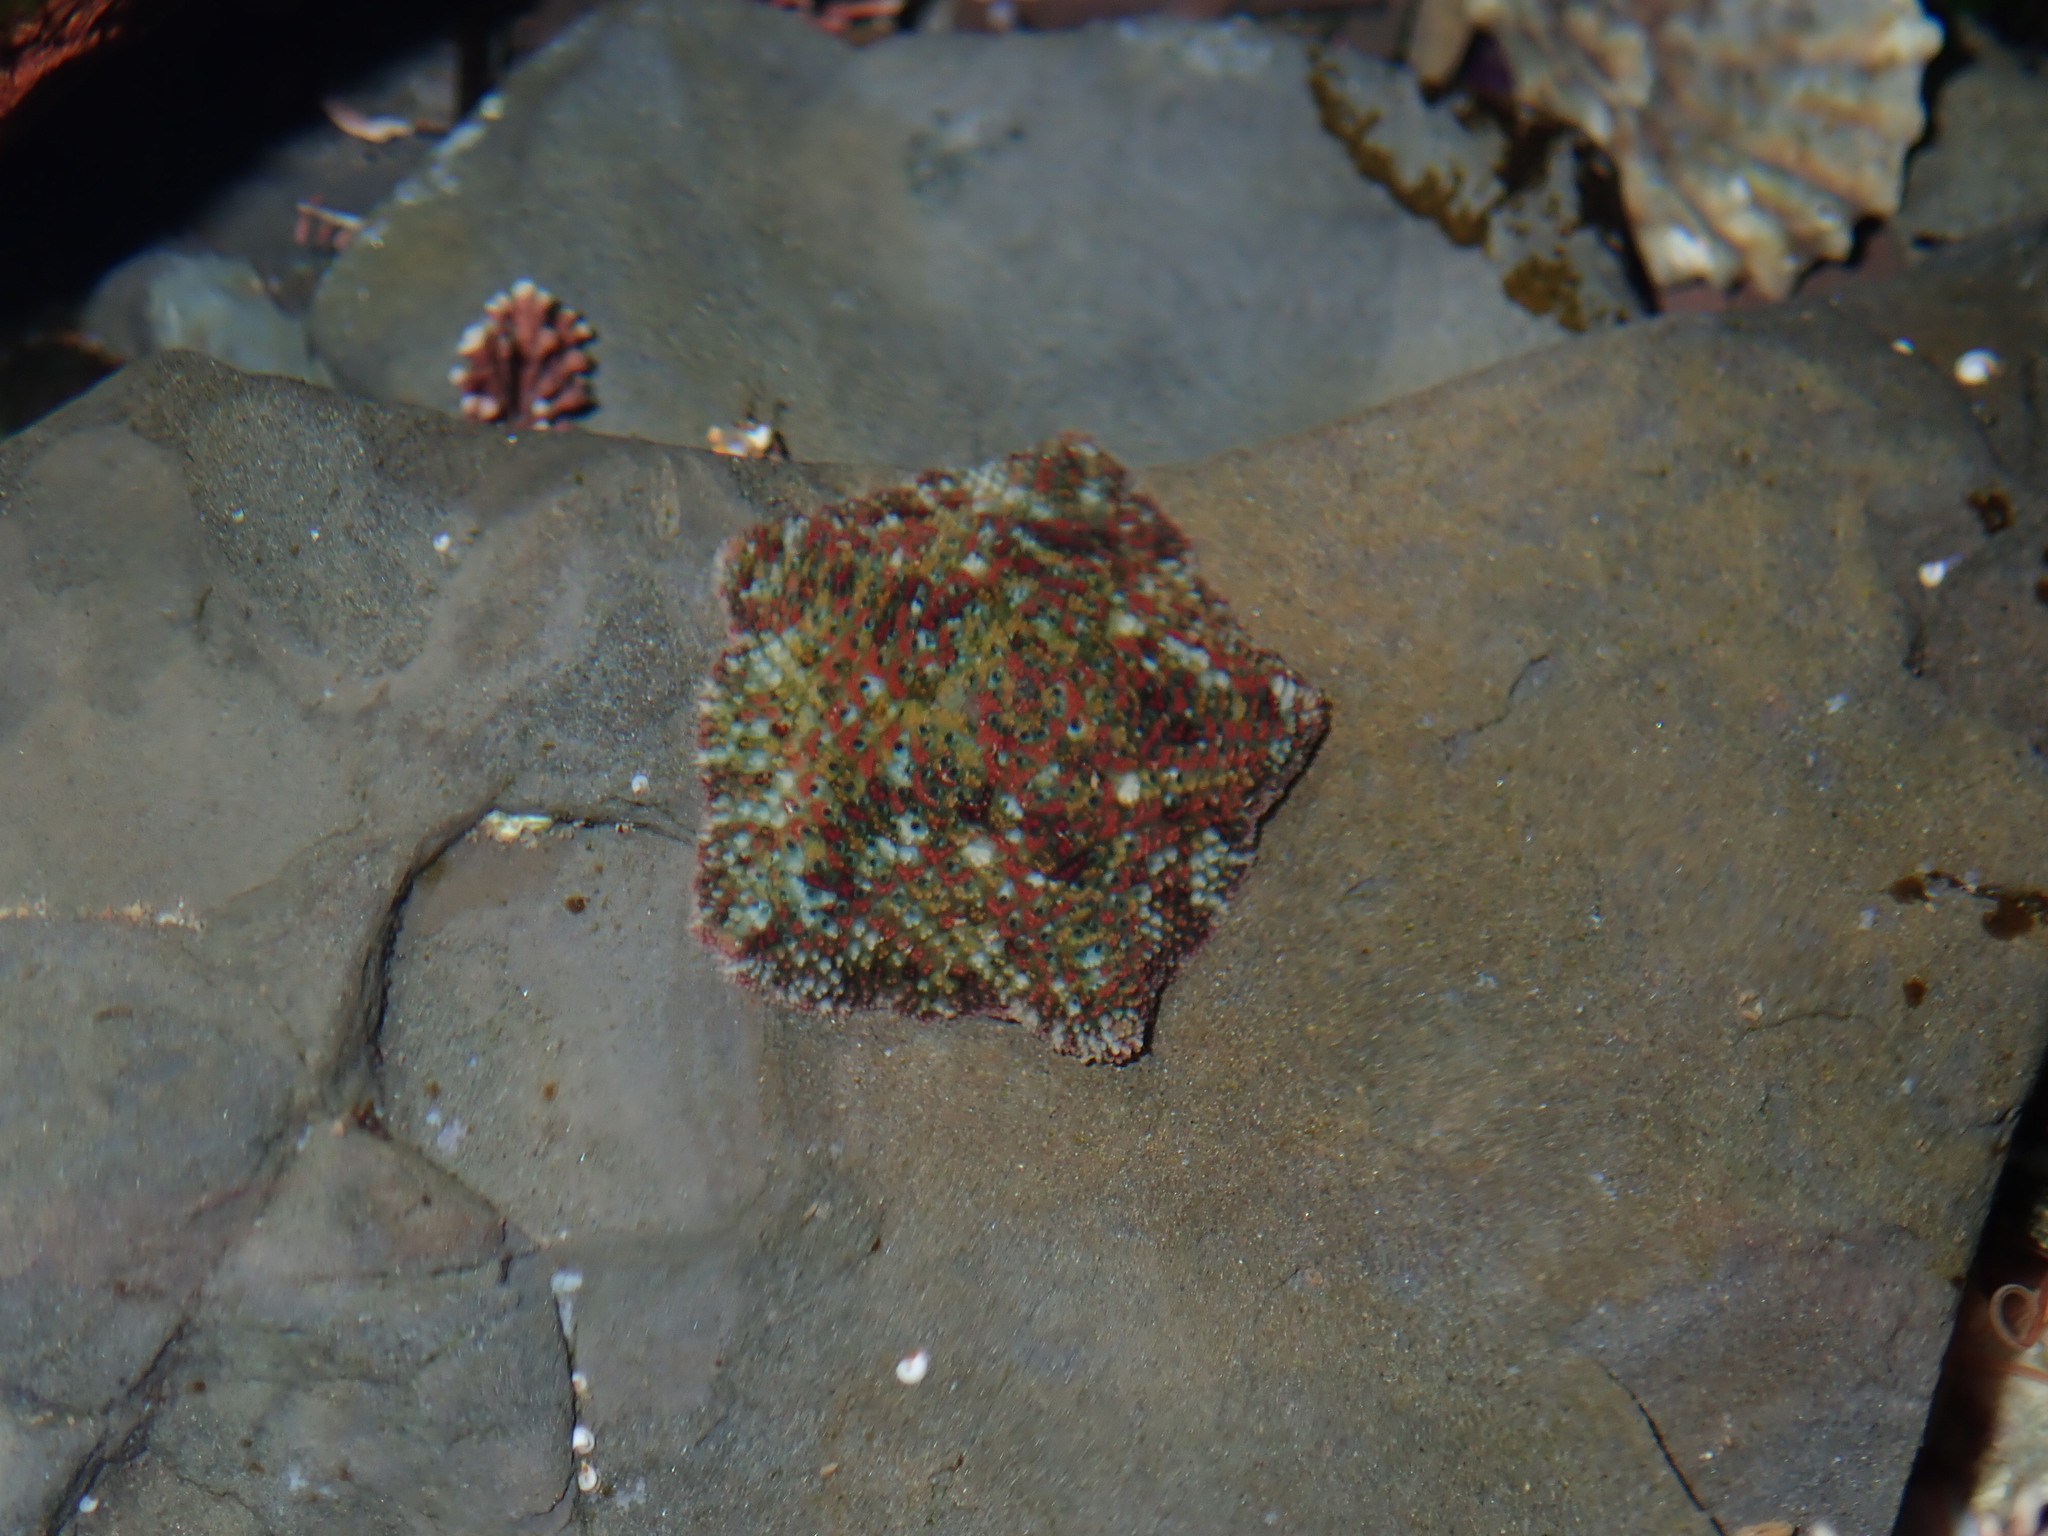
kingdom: Animalia
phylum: Echinodermata
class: Asteroidea
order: Valvatida
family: Asterinidae
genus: Parvulastra
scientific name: Parvulastra exigua
